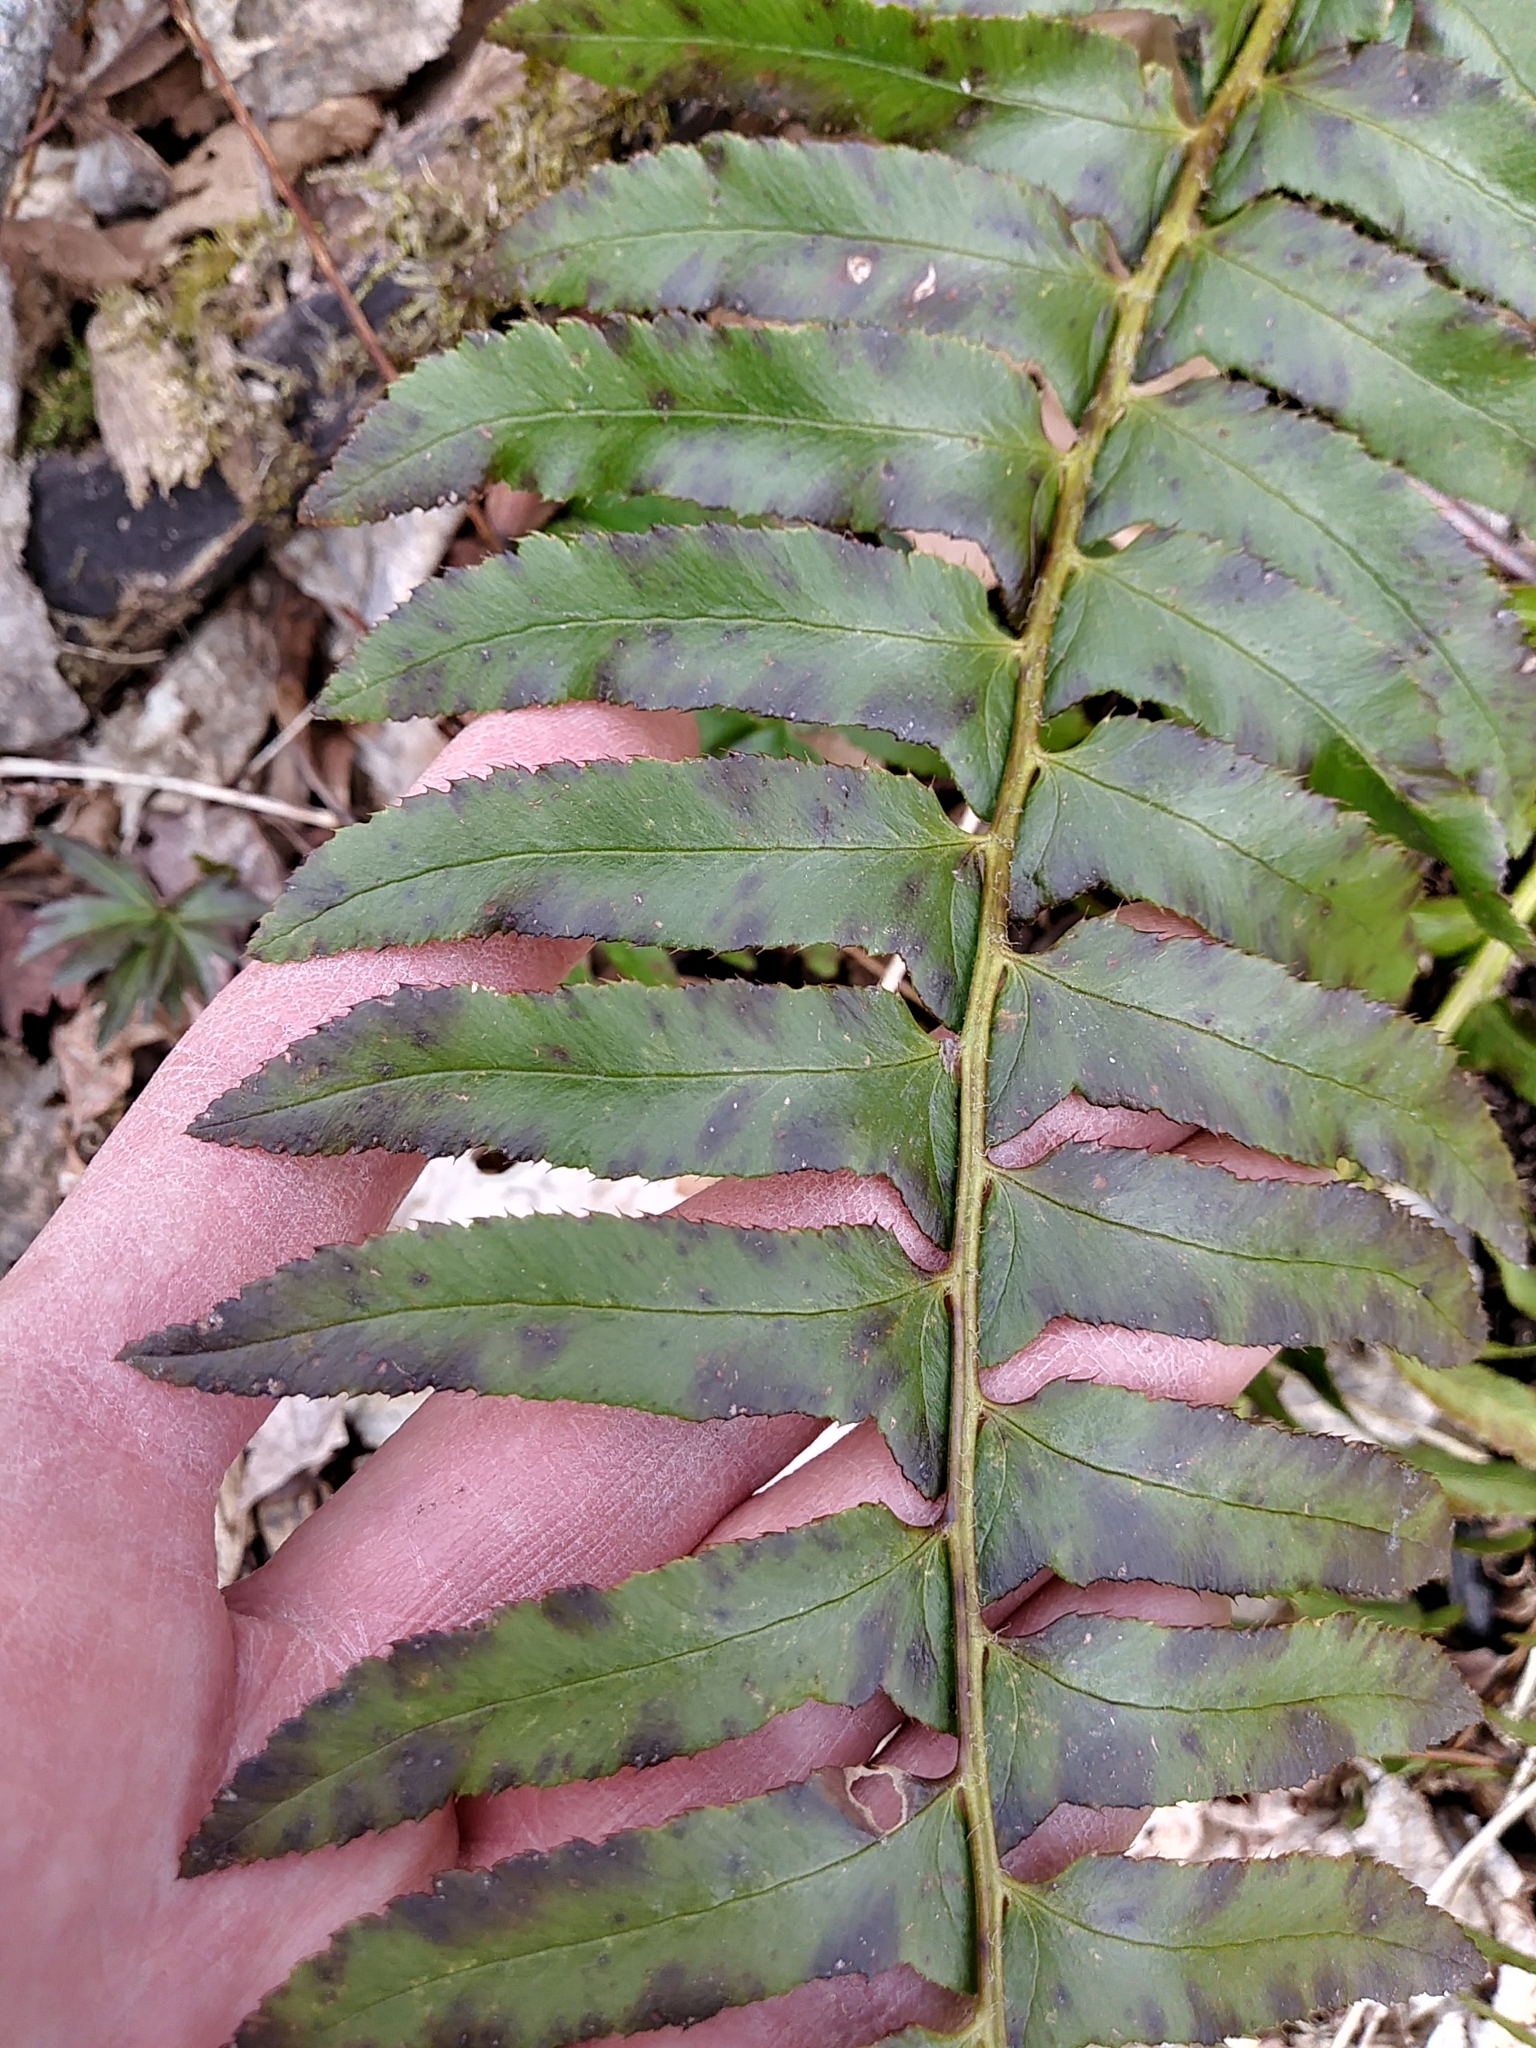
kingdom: Plantae
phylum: Tracheophyta
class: Polypodiopsida
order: Polypodiales
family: Dryopteridaceae
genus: Polystichum
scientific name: Polystichum acrostichoides
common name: Christmas fern
